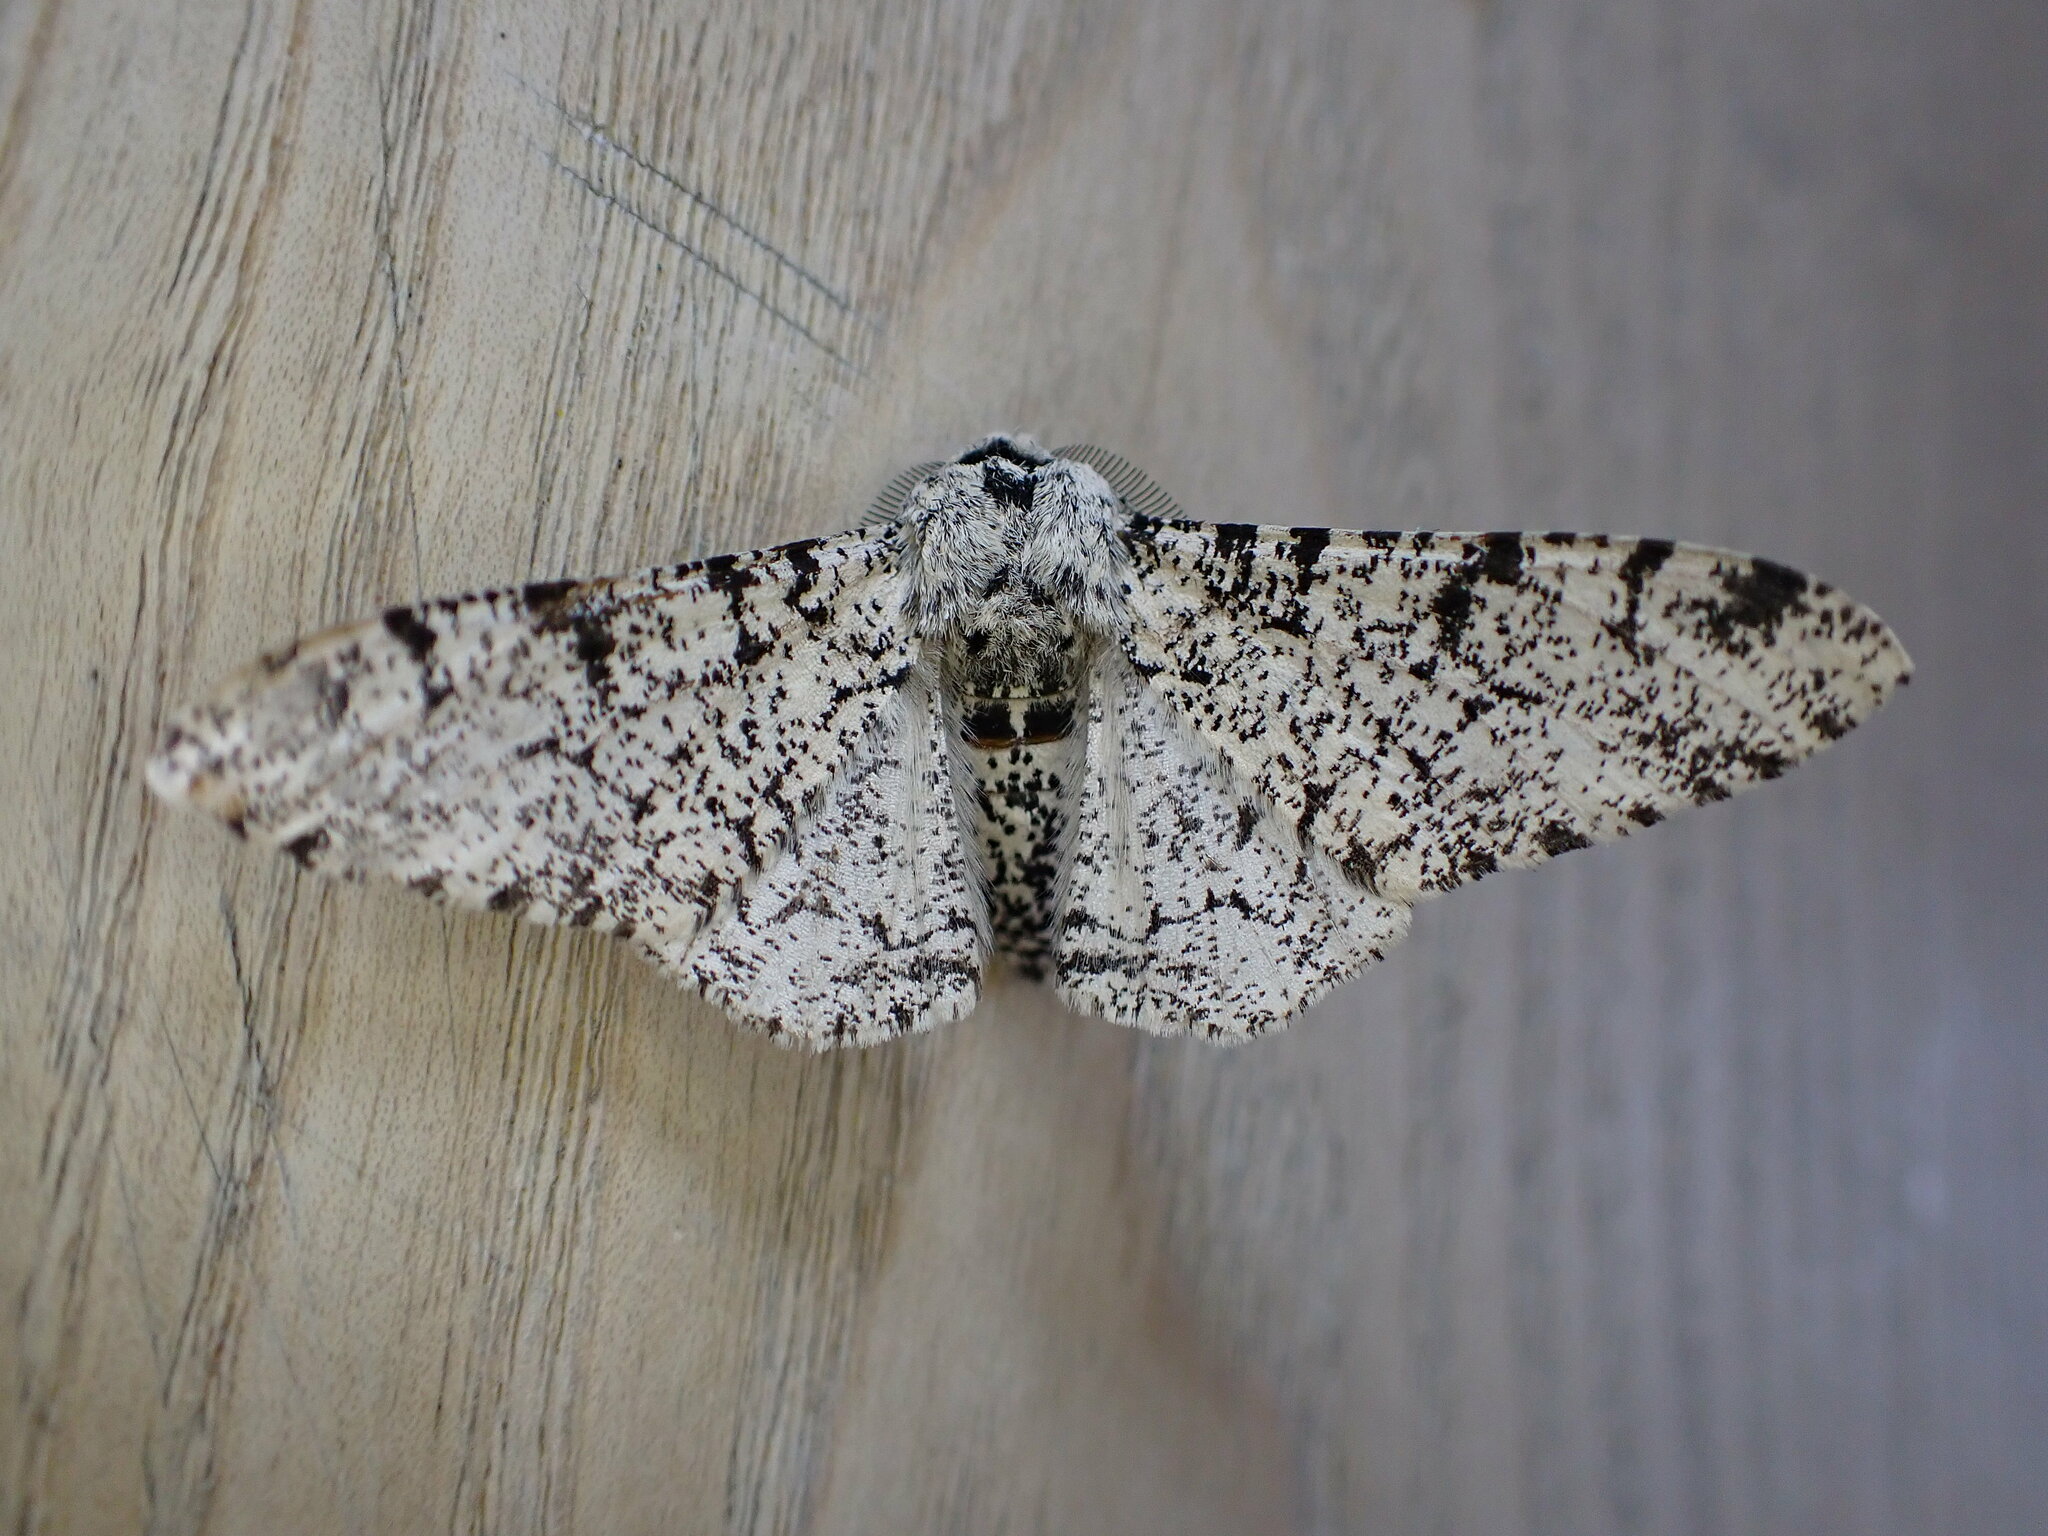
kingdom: Animalia
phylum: Arthropoda
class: Insecta
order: Lepidoptera
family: Geometridae
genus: Biston
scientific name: Biston betularia
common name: Peppered moth
